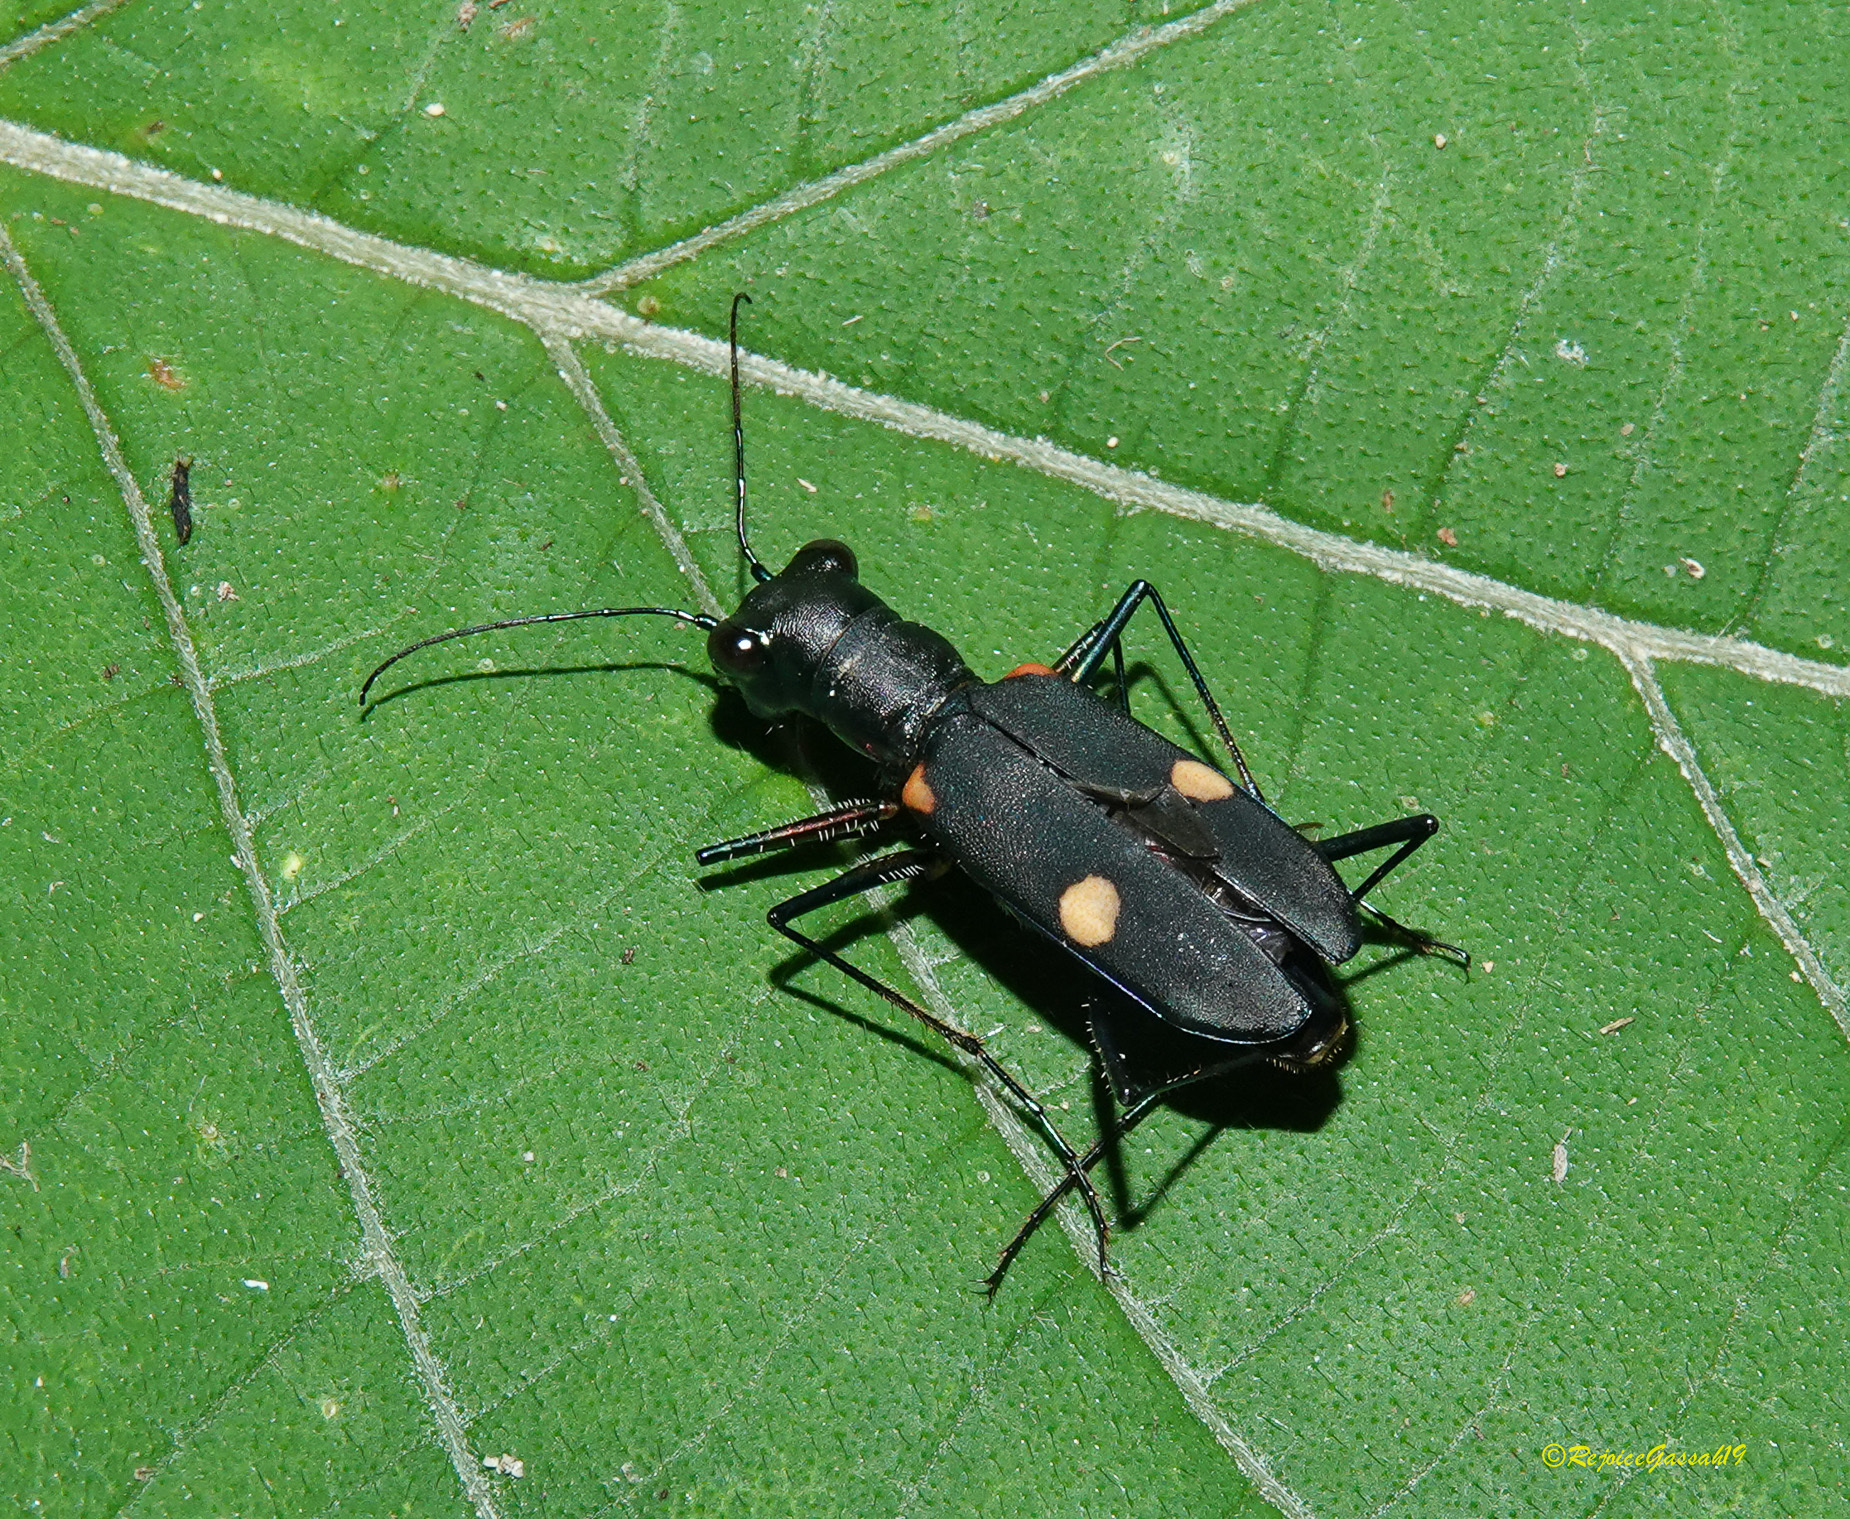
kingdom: Animalia
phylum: Arthropoda
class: Insecta
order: Coleoptera
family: Carabidae
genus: Cicindela
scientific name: Cicindela assamensis
